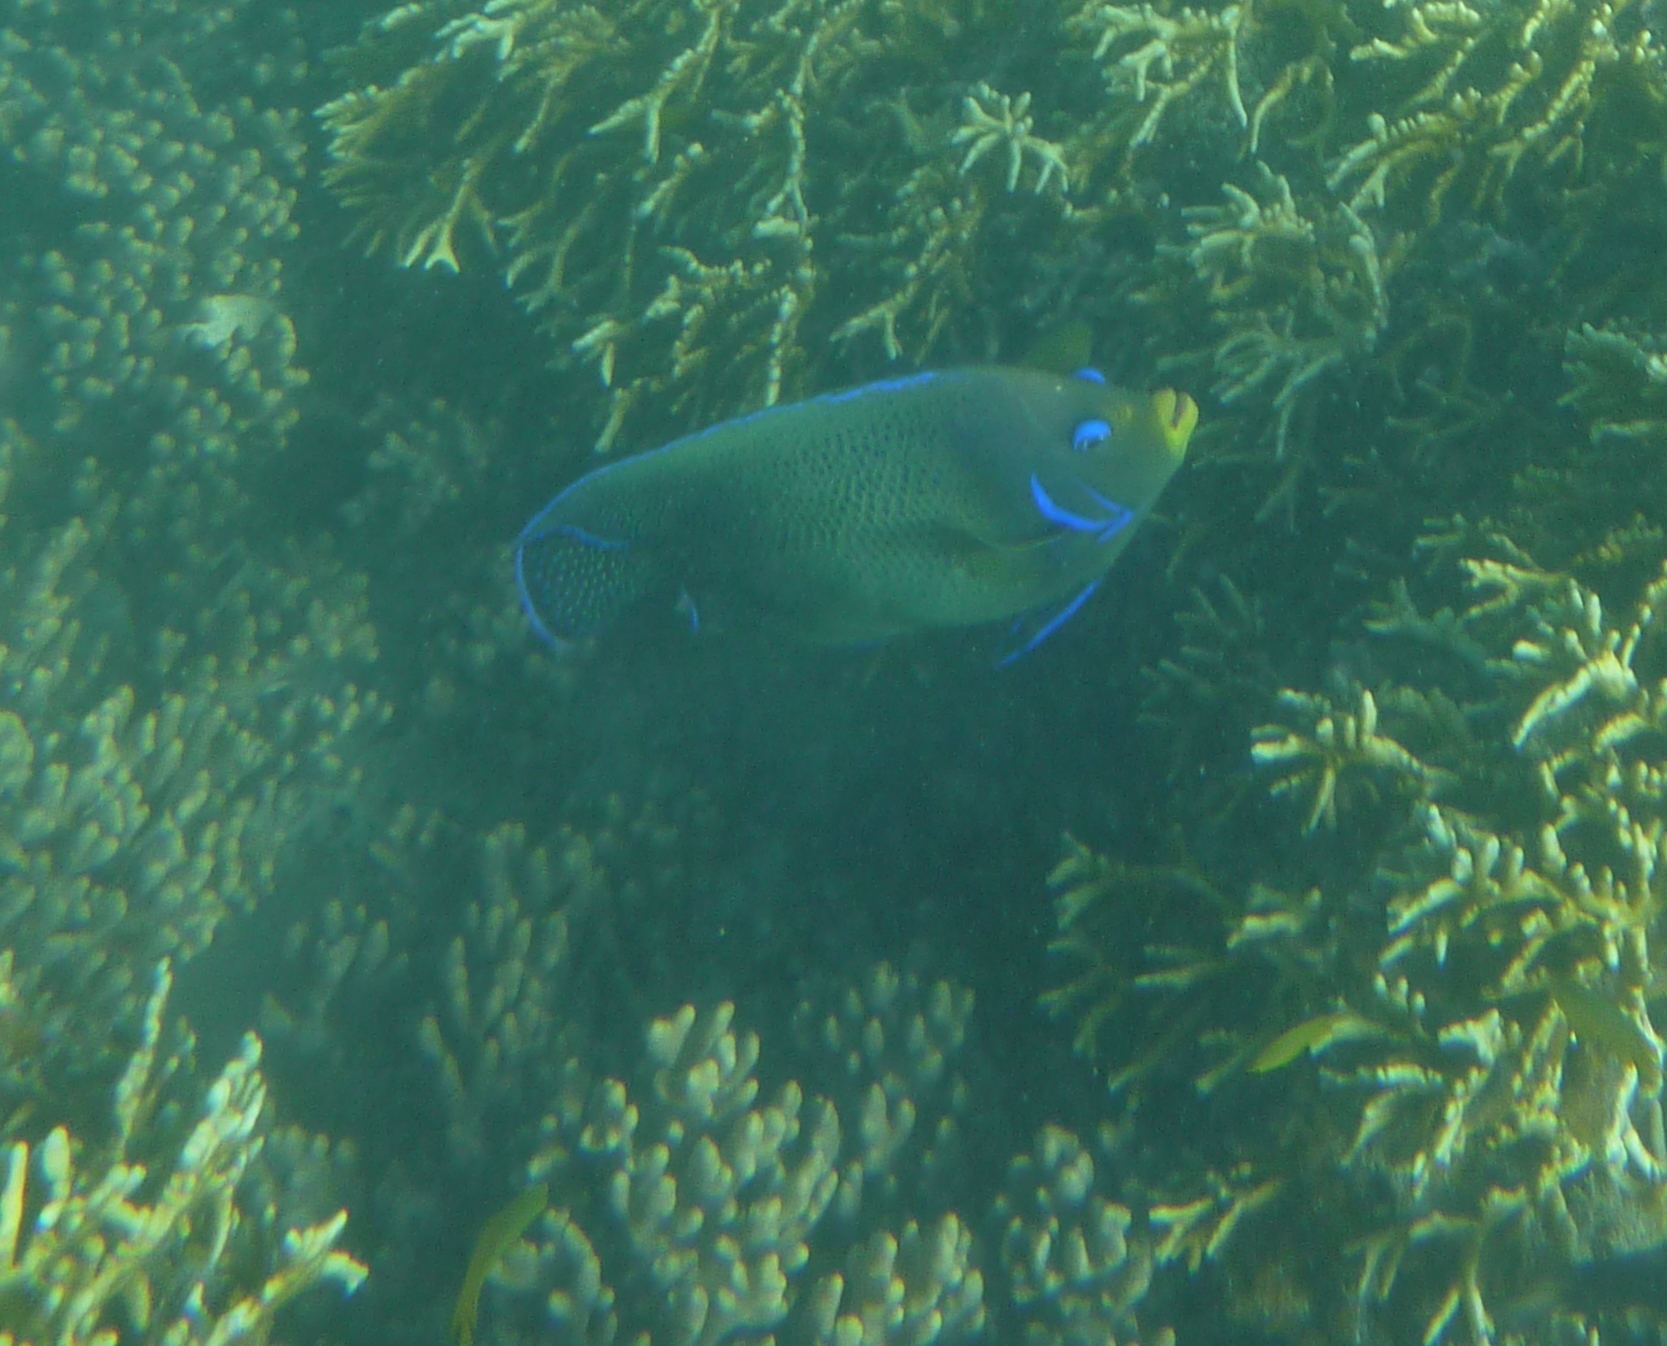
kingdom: Animalia
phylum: Chordata
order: Perciformes
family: Pomacanthidae
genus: Pomacanthus
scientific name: Pomacanthus semicirculatus
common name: Semicircle angelfish
